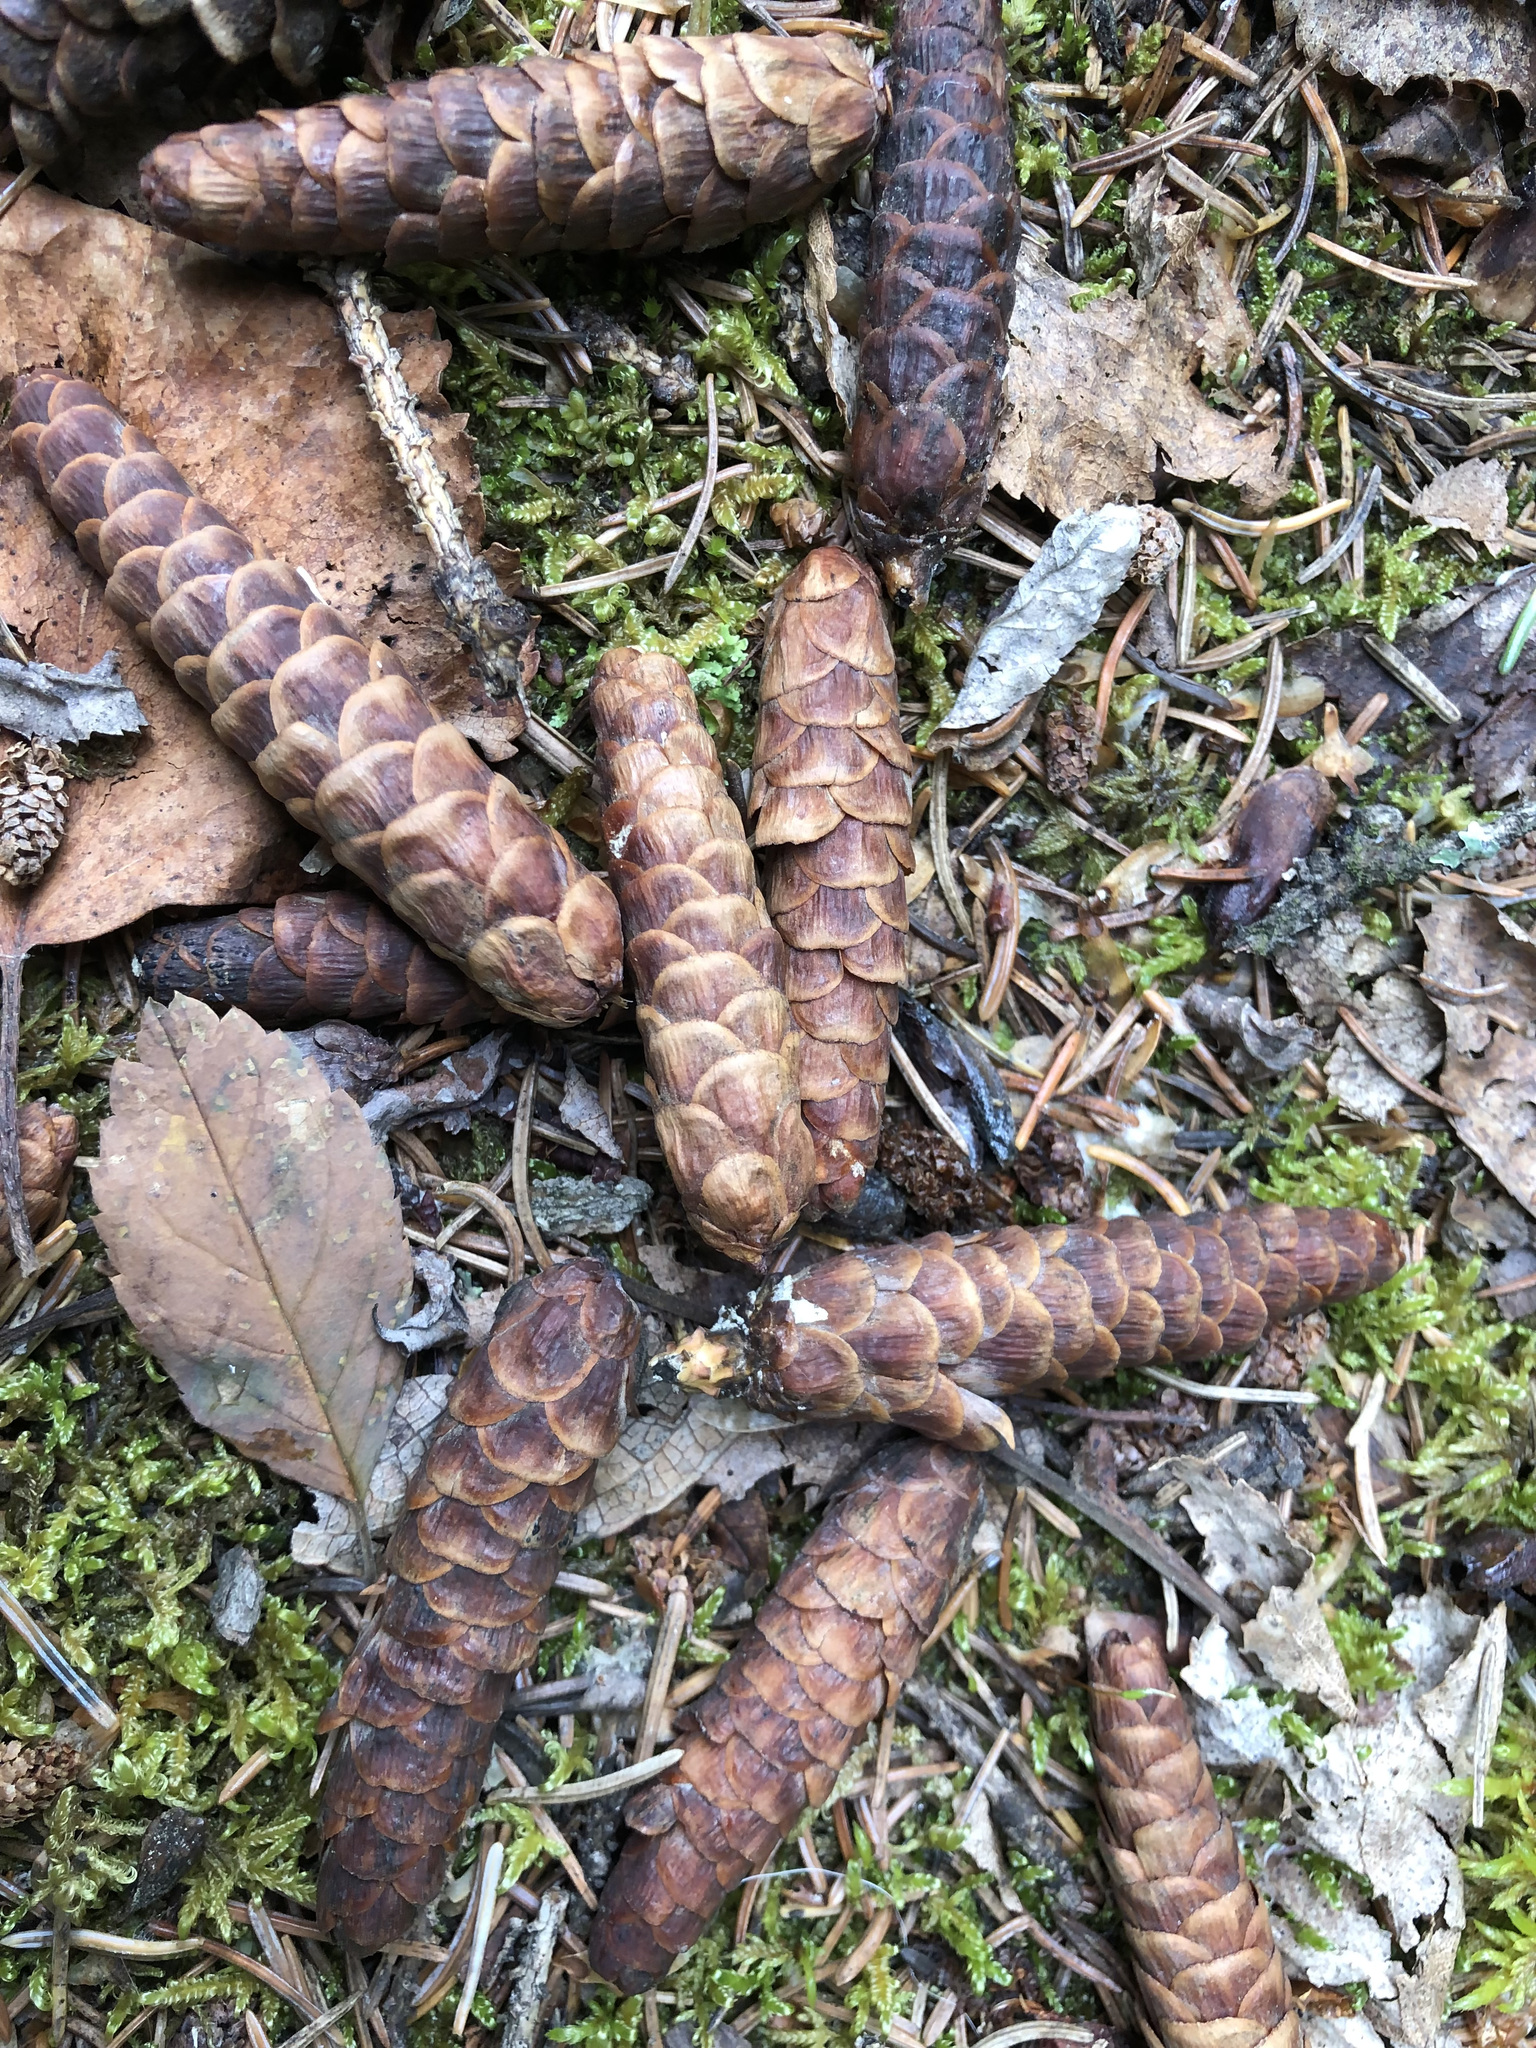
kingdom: Plantae
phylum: Tracheophyta
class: Pinopsida
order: Pinales
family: Pinaceae
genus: Picea
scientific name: Picea glauca
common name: White spruce
